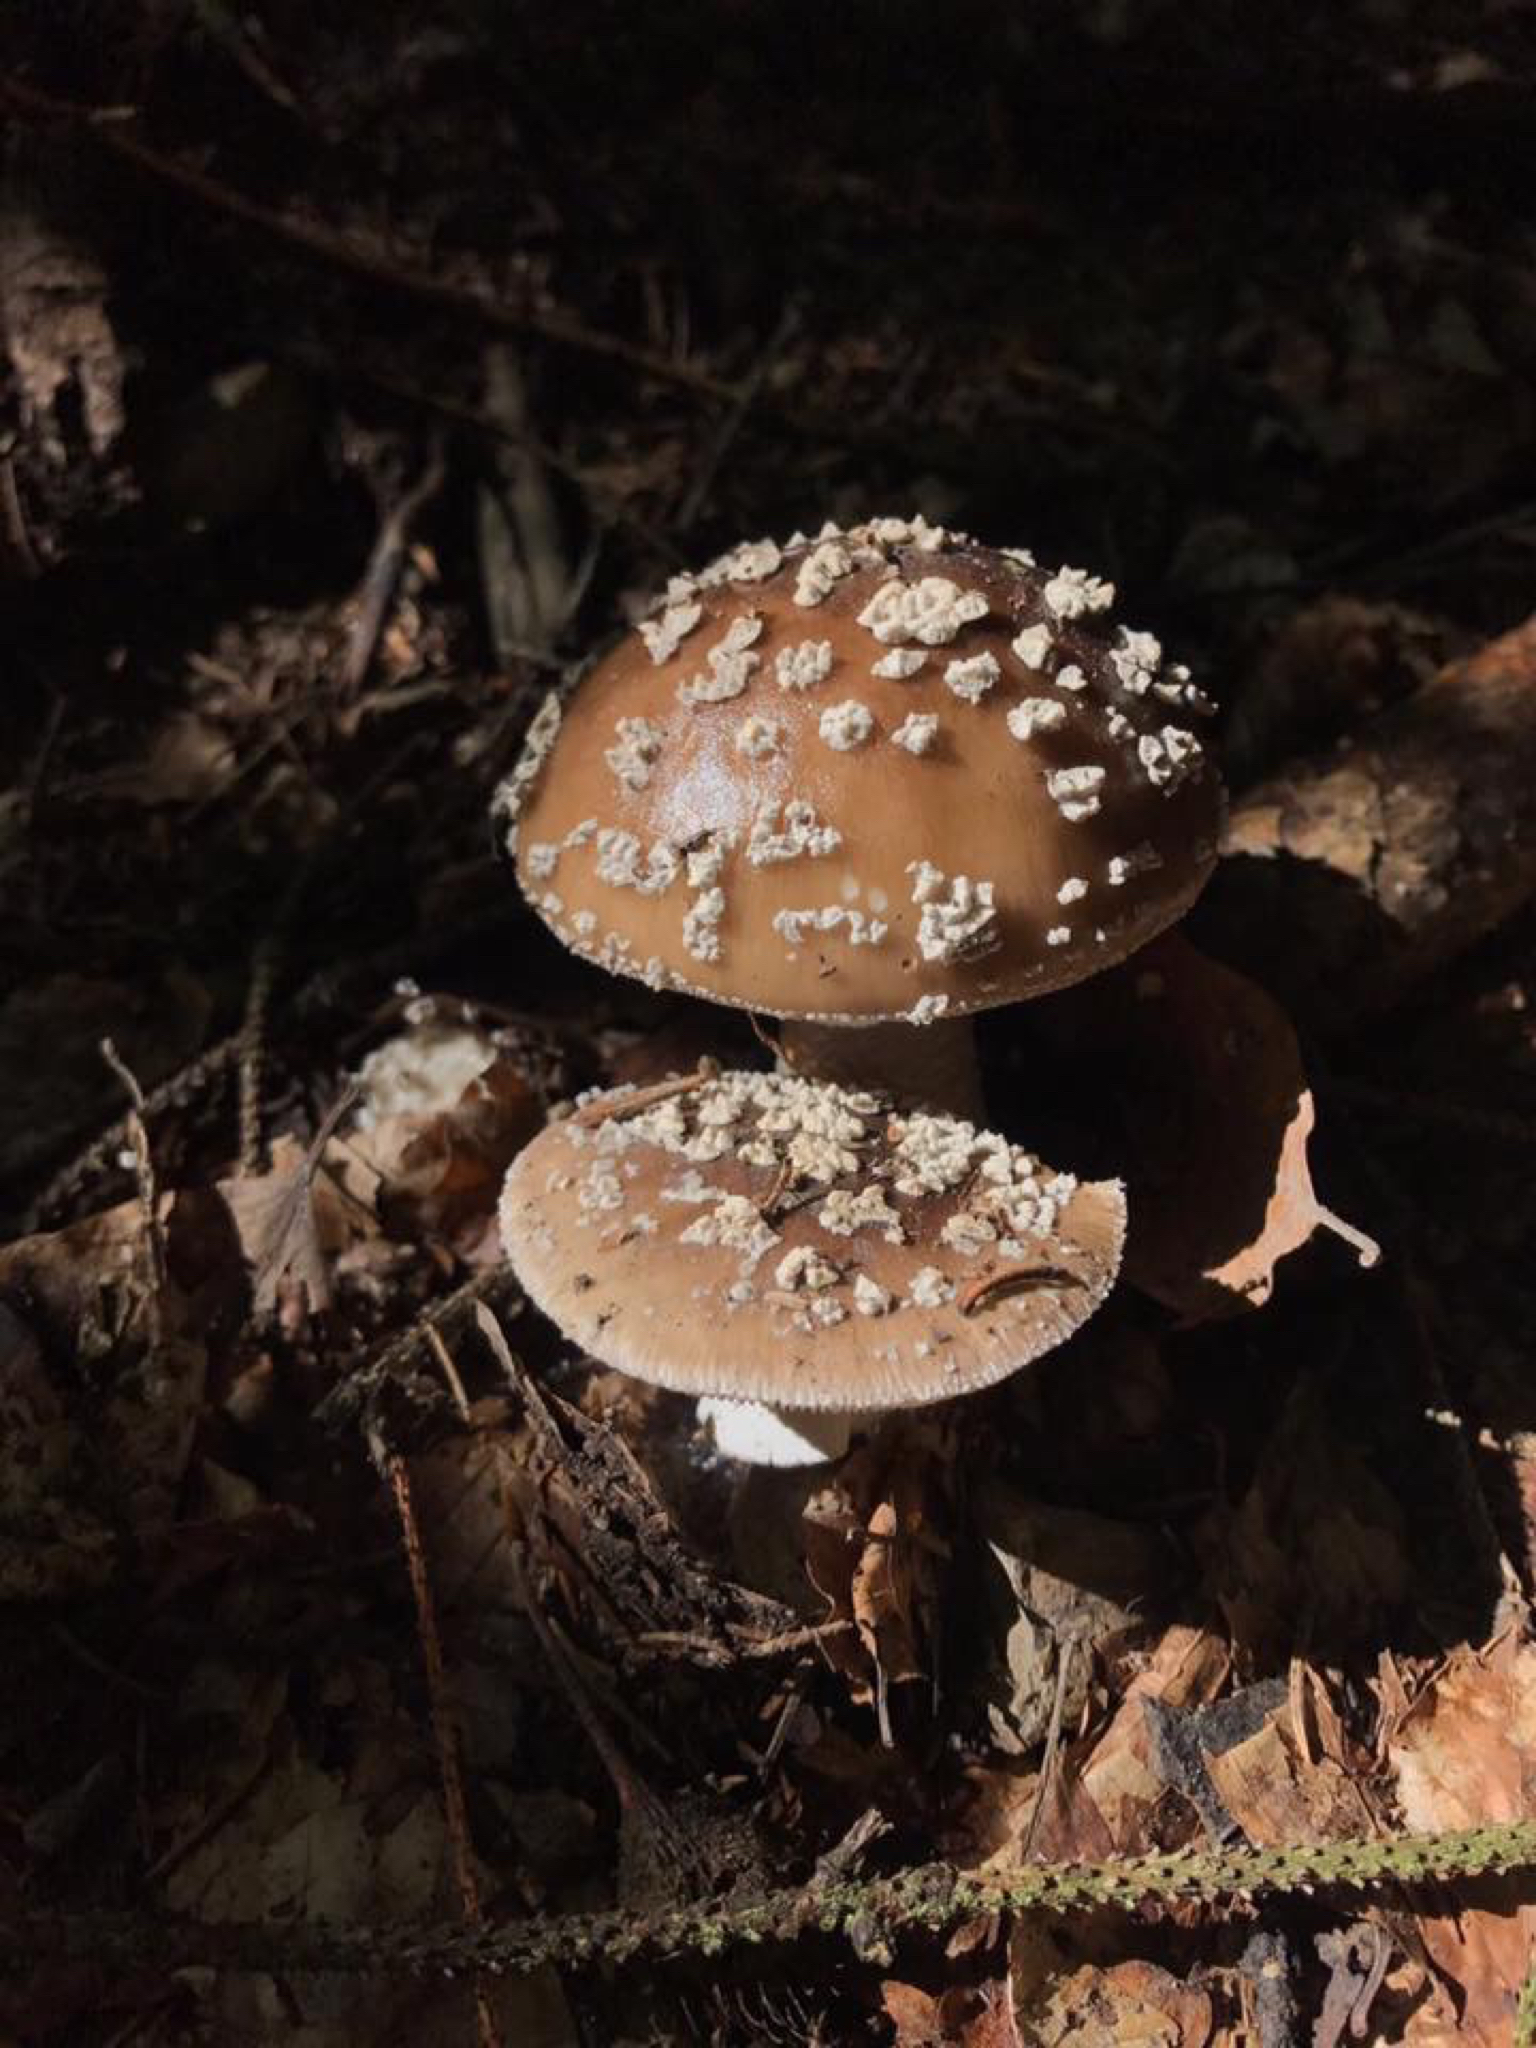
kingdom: Fungi
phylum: Basidiomycota
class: Agaricomycetes
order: Agaricales
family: Amanitaceae
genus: Amanita
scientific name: Amanita pantherina
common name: Panthercap
